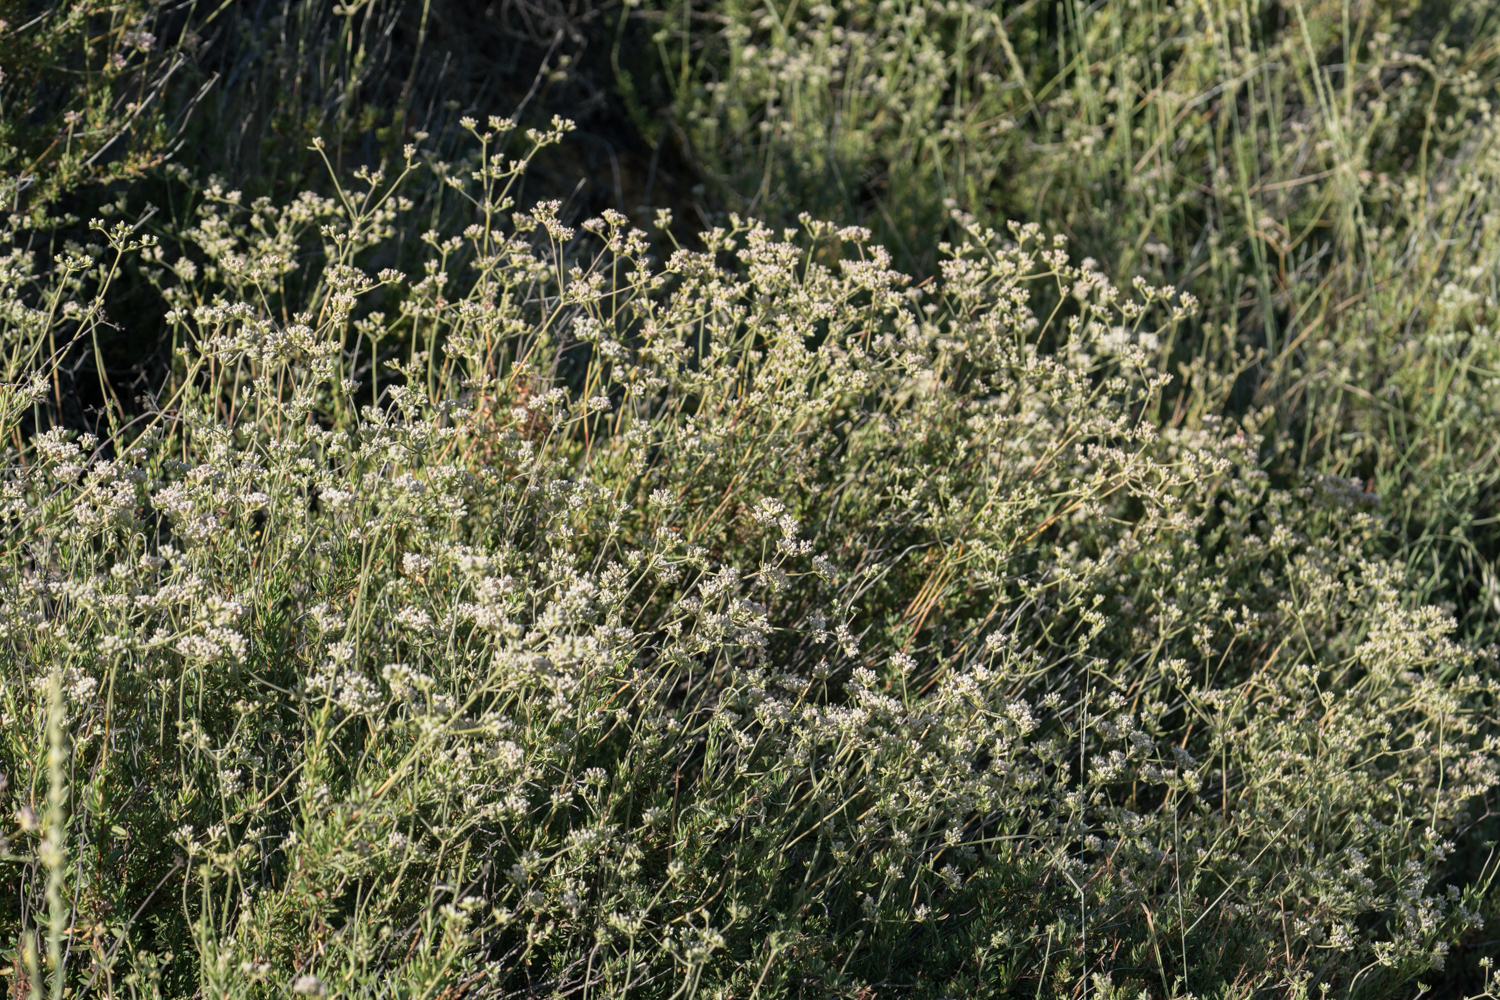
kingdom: Plantae
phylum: Tracheophyta
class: Magnoliopsida
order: Caryophyllales
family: Polygonaceae
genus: Eriogonum
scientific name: Eriogonum fasciculatum
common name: California wild buckwheat
